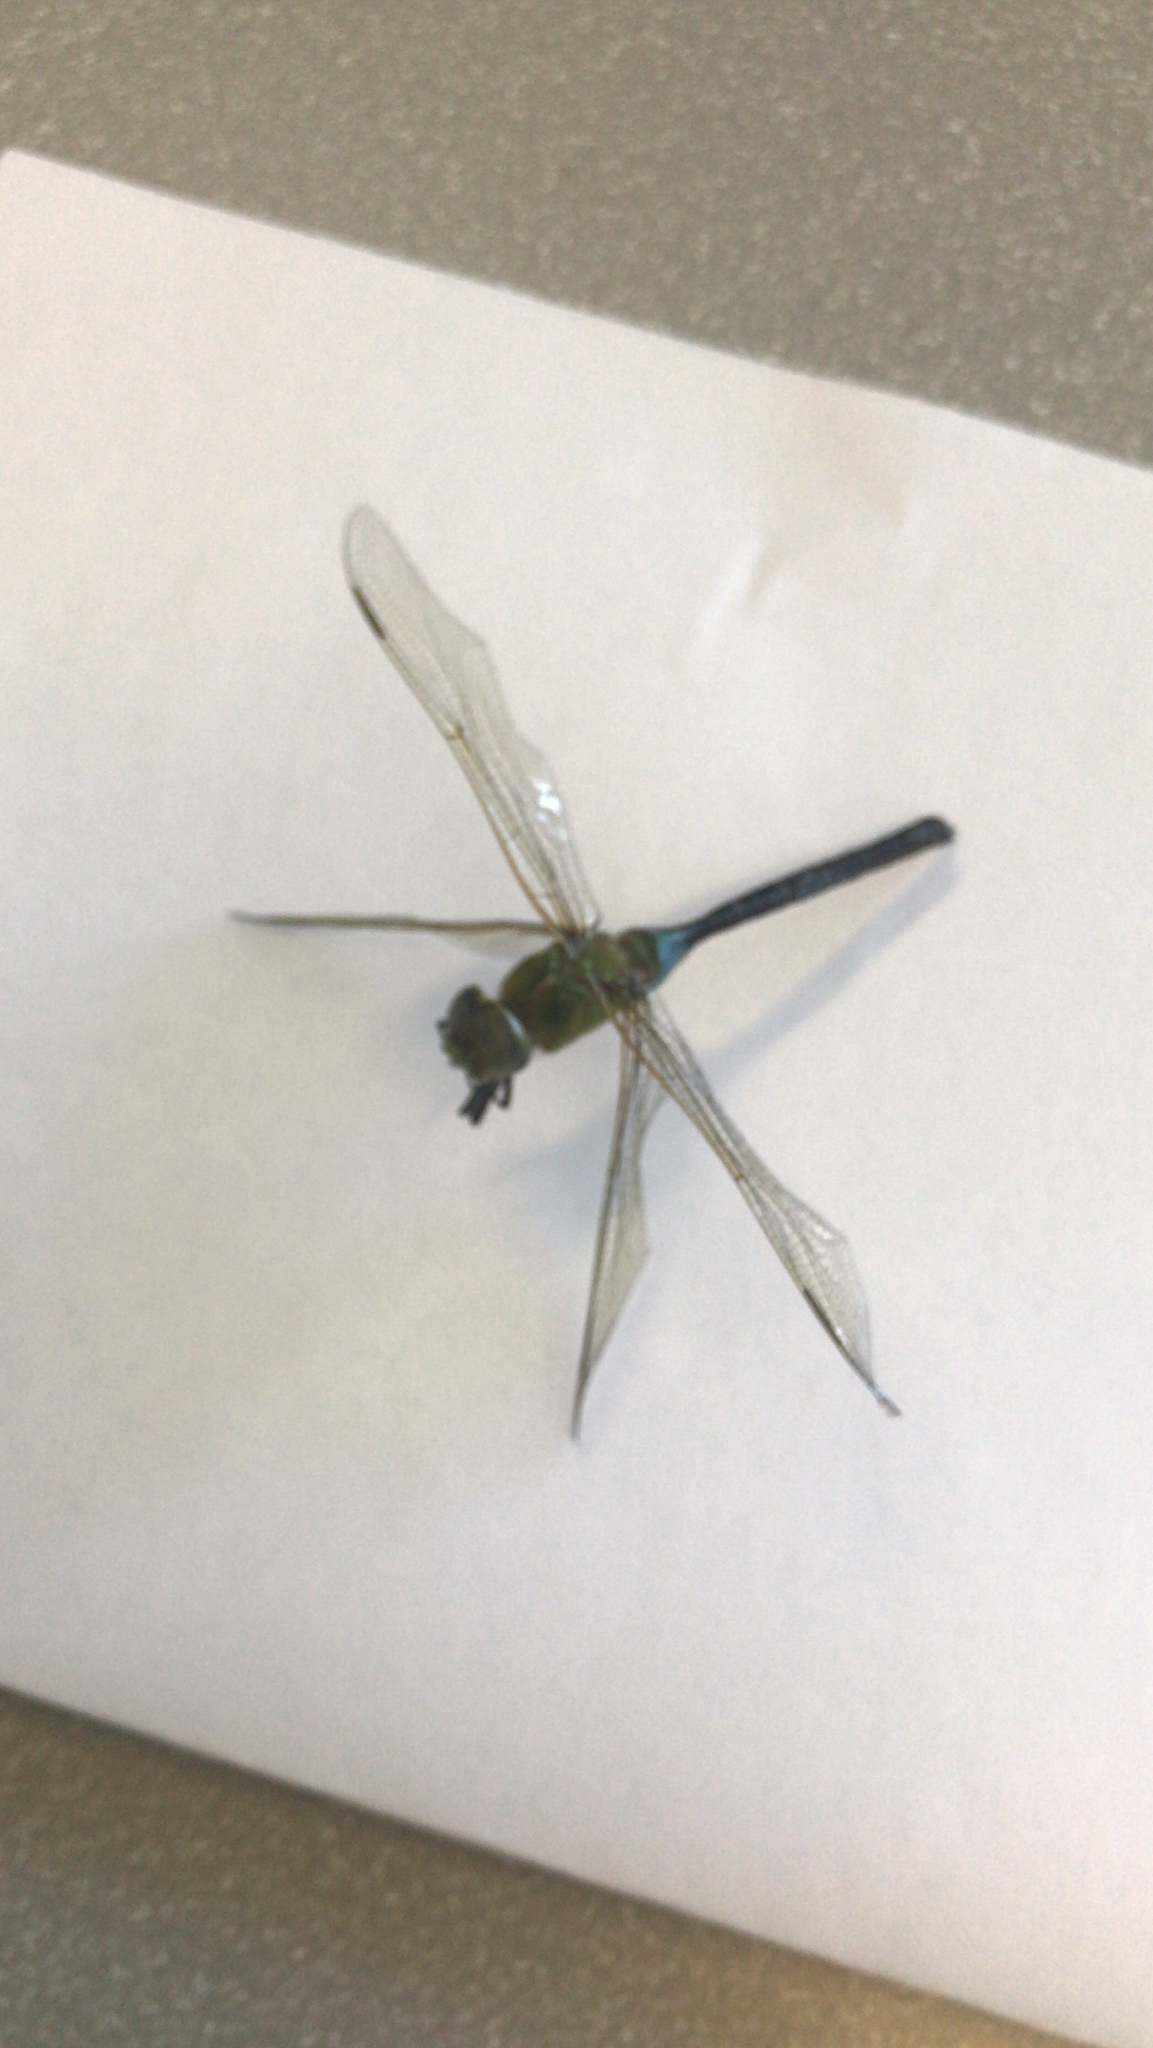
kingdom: Animalia
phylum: Arthropoda
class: Insecta
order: Odonata
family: Aeshnidae
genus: Anax
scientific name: Anax junius
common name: Common green darner
